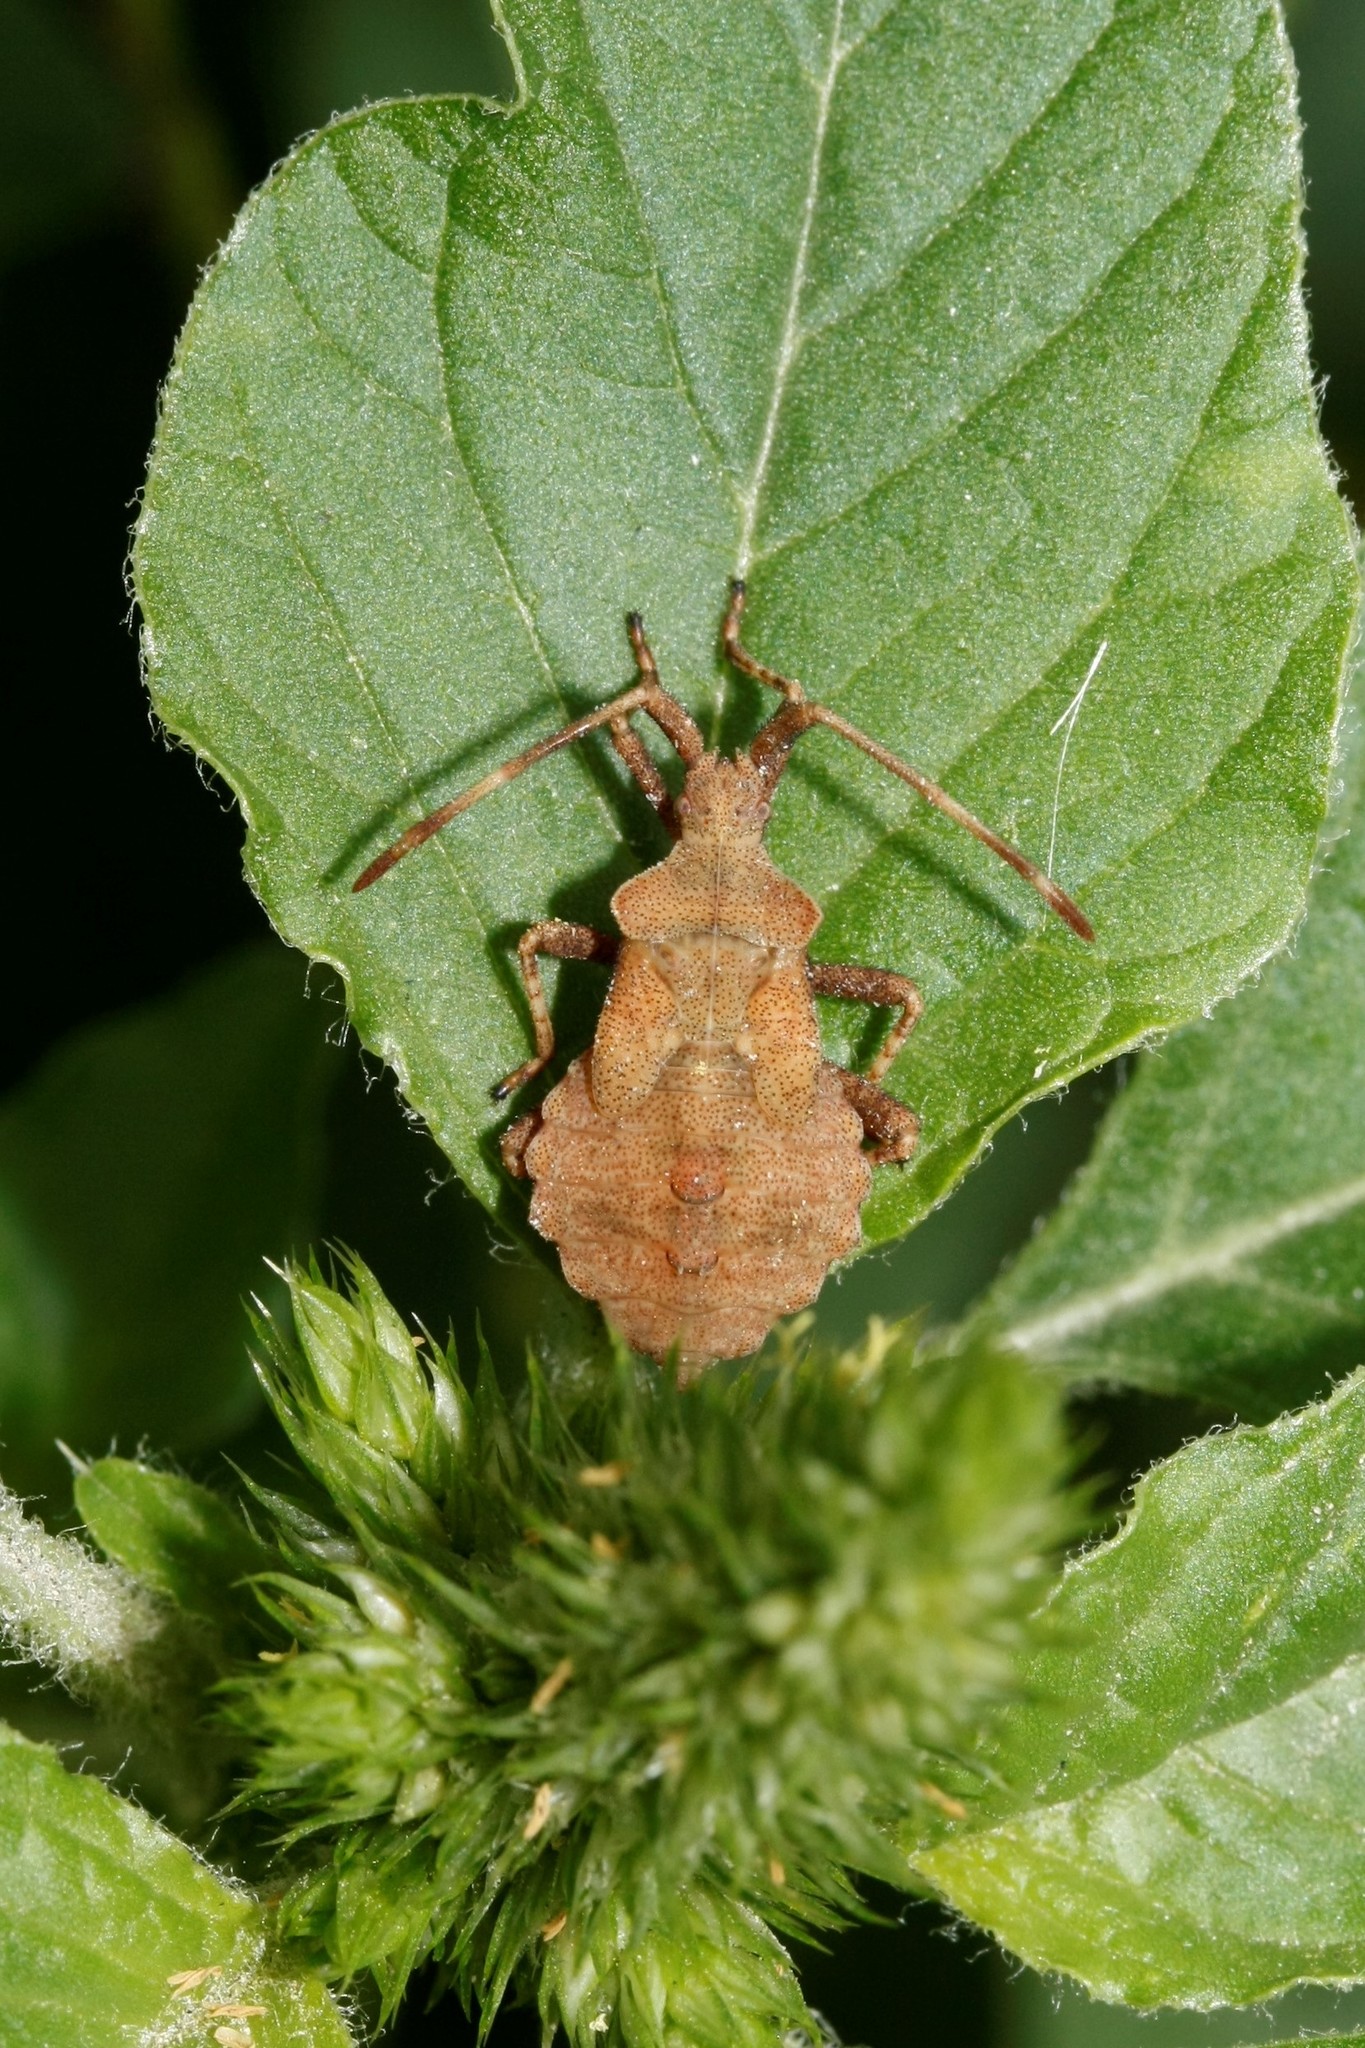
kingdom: Animalia
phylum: Arthropoda
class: Insecta
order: Hemiptera
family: Coreidae
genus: Coreus
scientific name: Coreus marginatus
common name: Dock bug
